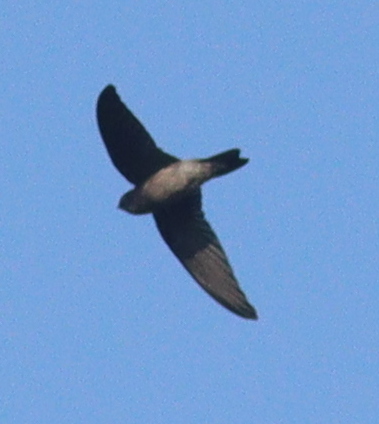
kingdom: Animalia
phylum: Chordata
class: Aves
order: Apodiformes
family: Apodidae
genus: Aerodramus
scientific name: Aerodramus fuciphagus
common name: Edible-nest swiftlet
